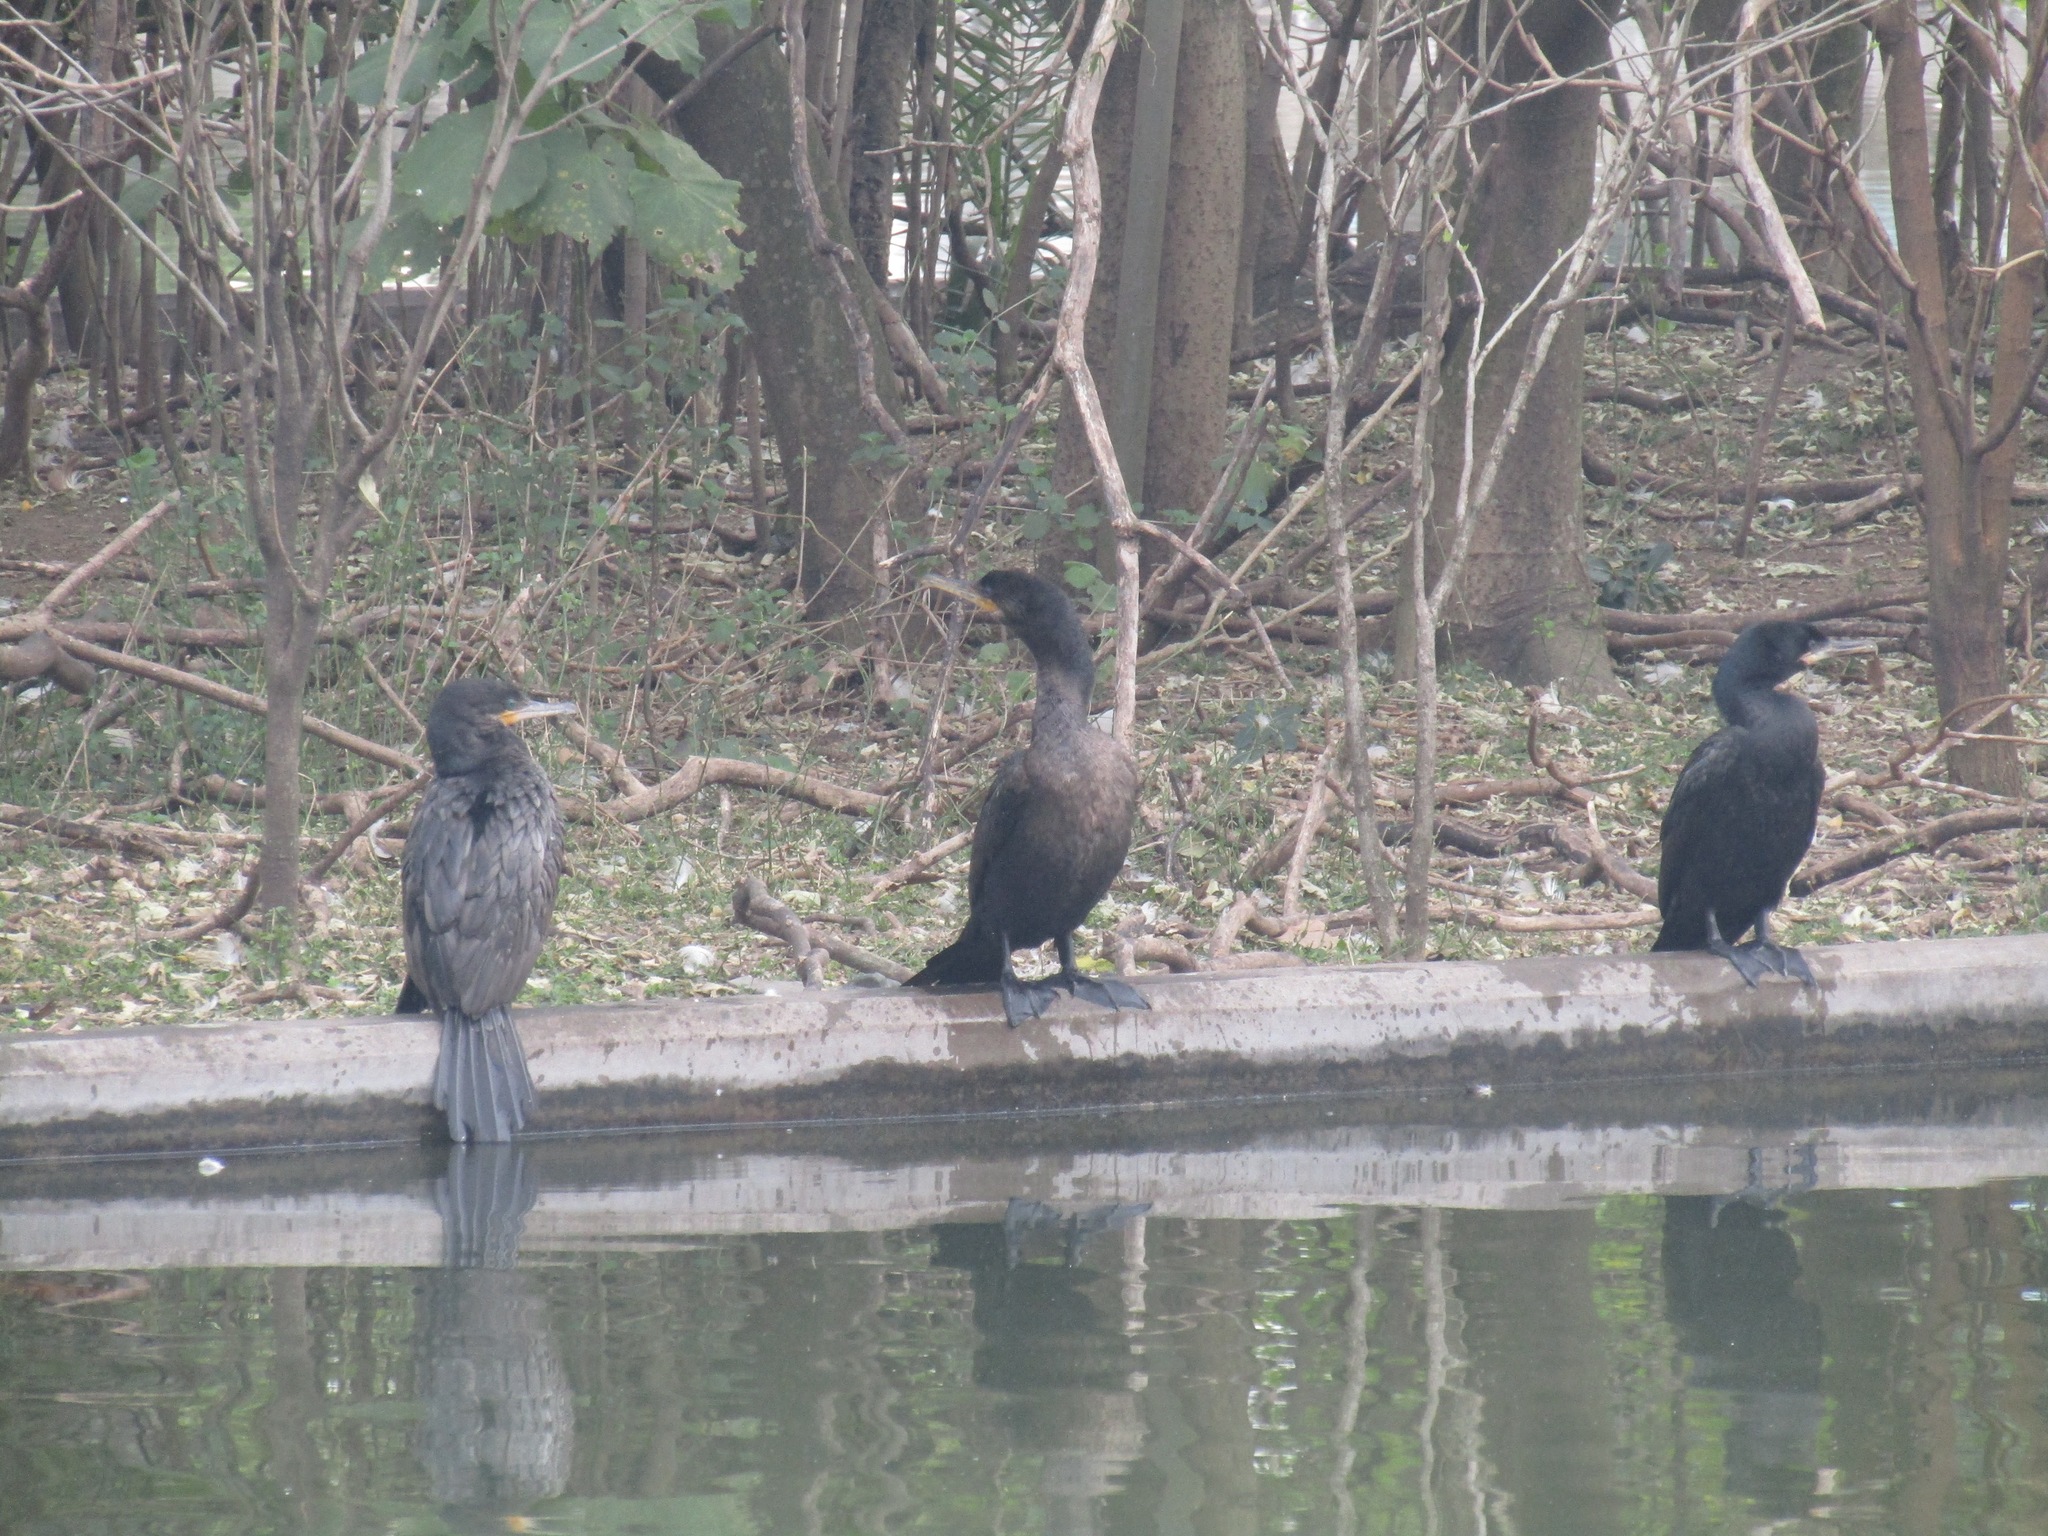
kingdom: Animalia
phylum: Chordata
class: Aves
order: Suliformes
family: Phalacrocoracidae
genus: Phalacrocorax
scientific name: Phalacrocorax brasilianus
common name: Neotropic cormorant
